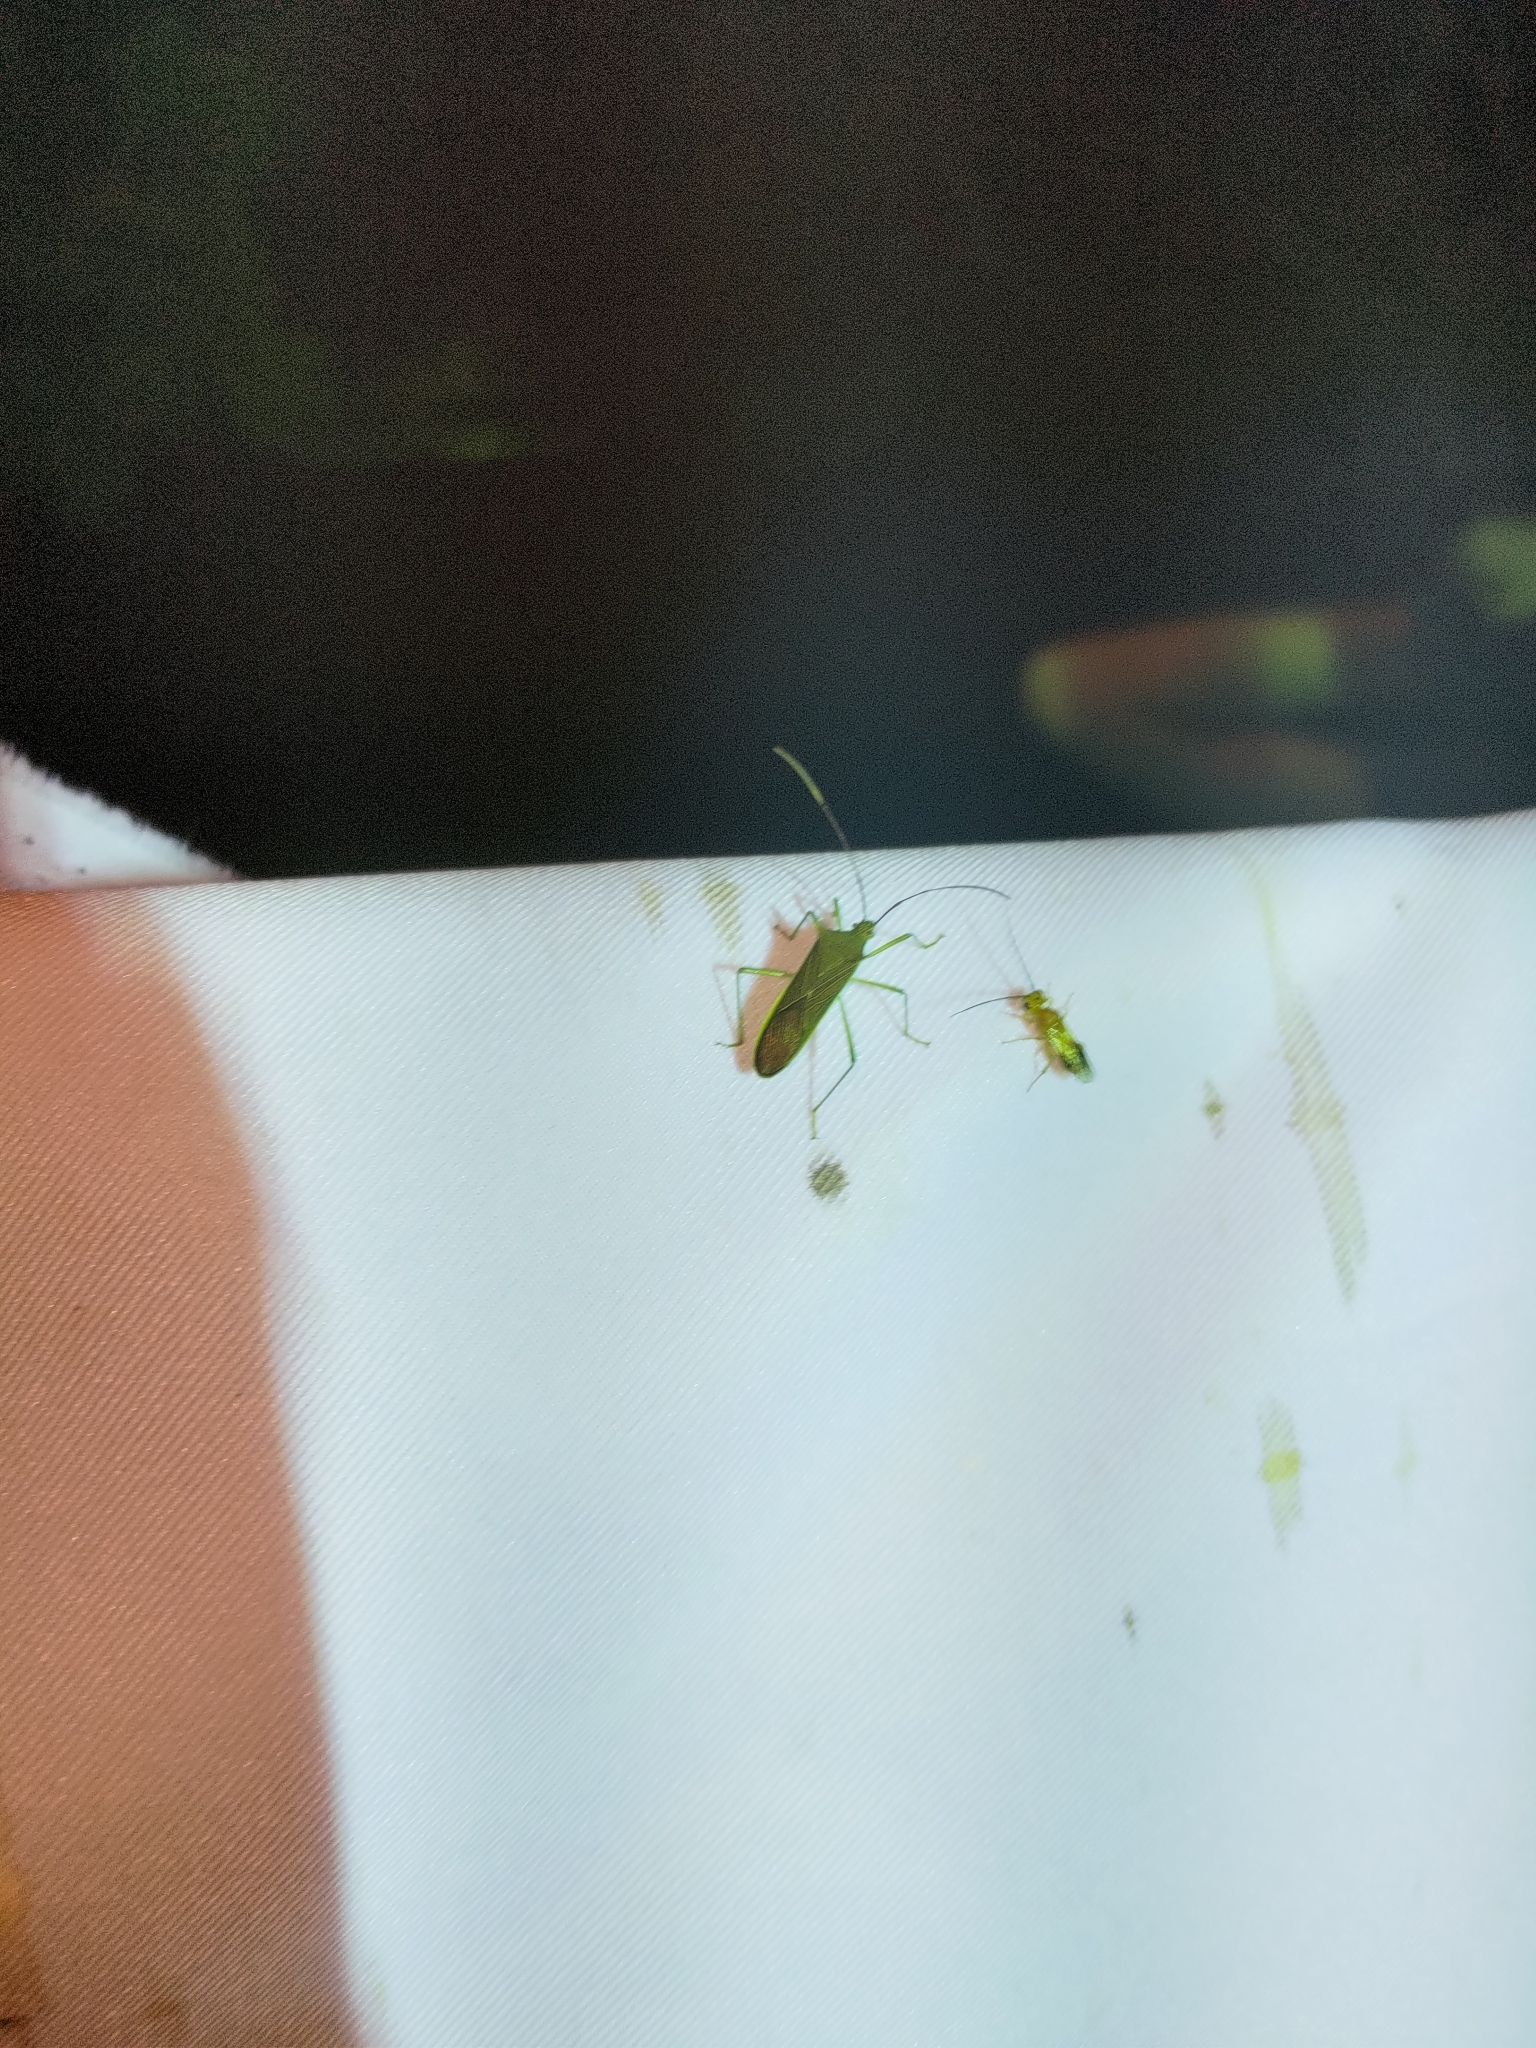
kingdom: Animalia
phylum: Arthropoda
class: Insecta
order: Hemiptera
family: Coreidae
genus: Paradasynus
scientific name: Paradasynus spinosus
